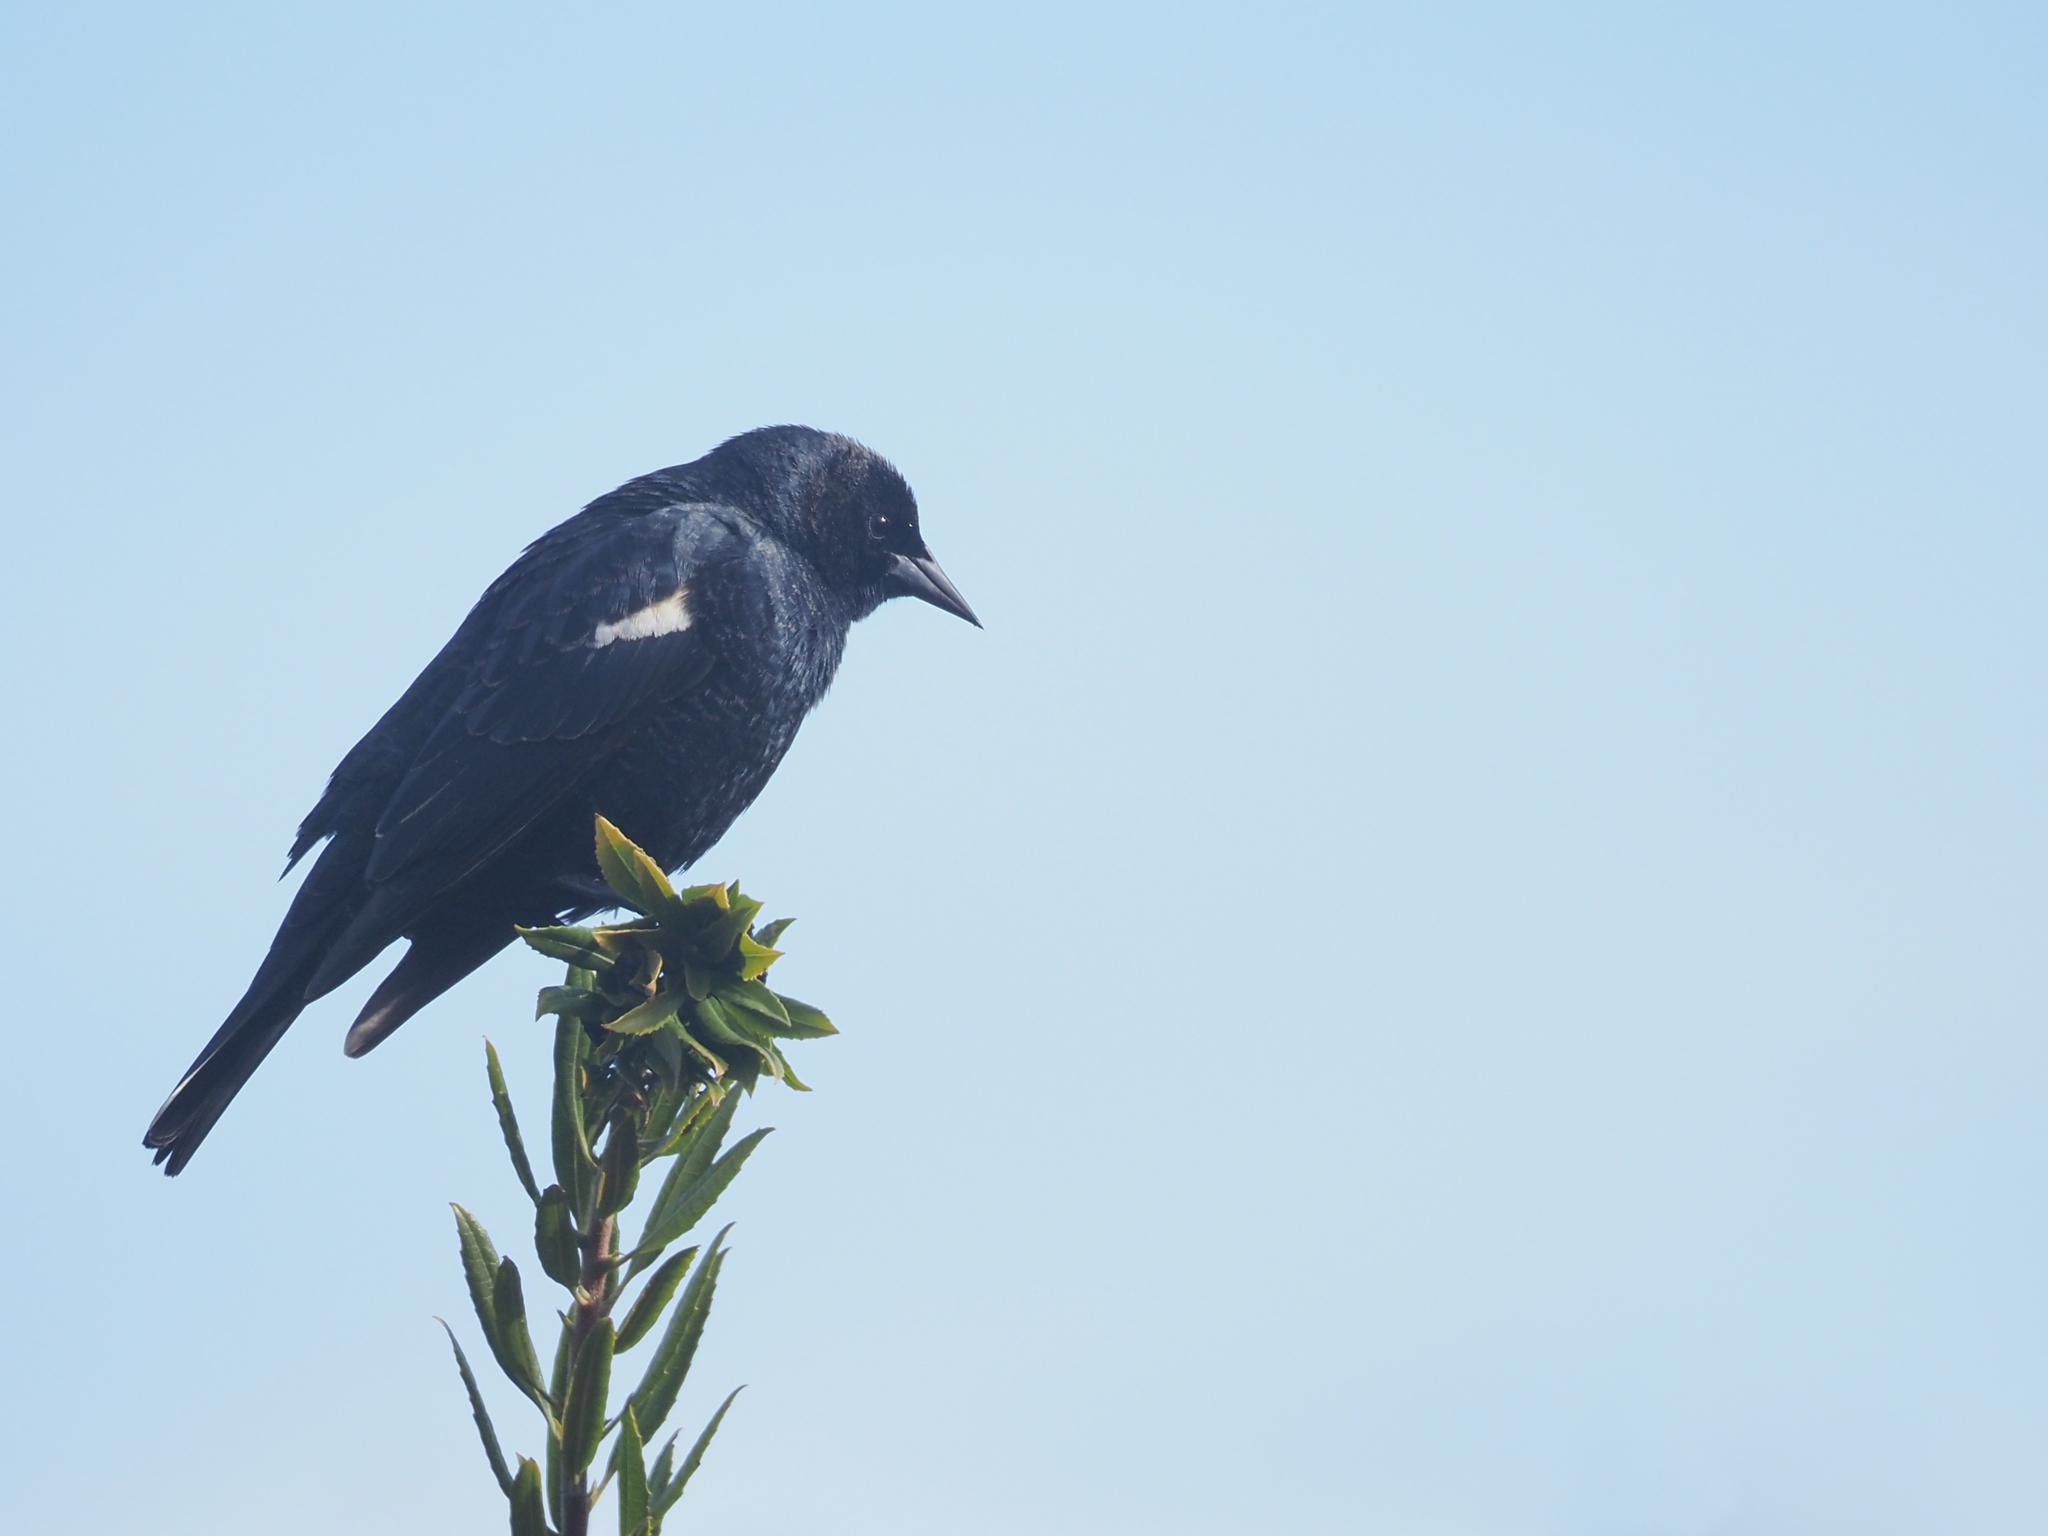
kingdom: Animalia
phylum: Chordata
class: Aves
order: Passeriformes
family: Icteridae
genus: Agelaius
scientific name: Agelaius tricolor
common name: Tricolored blackbird
